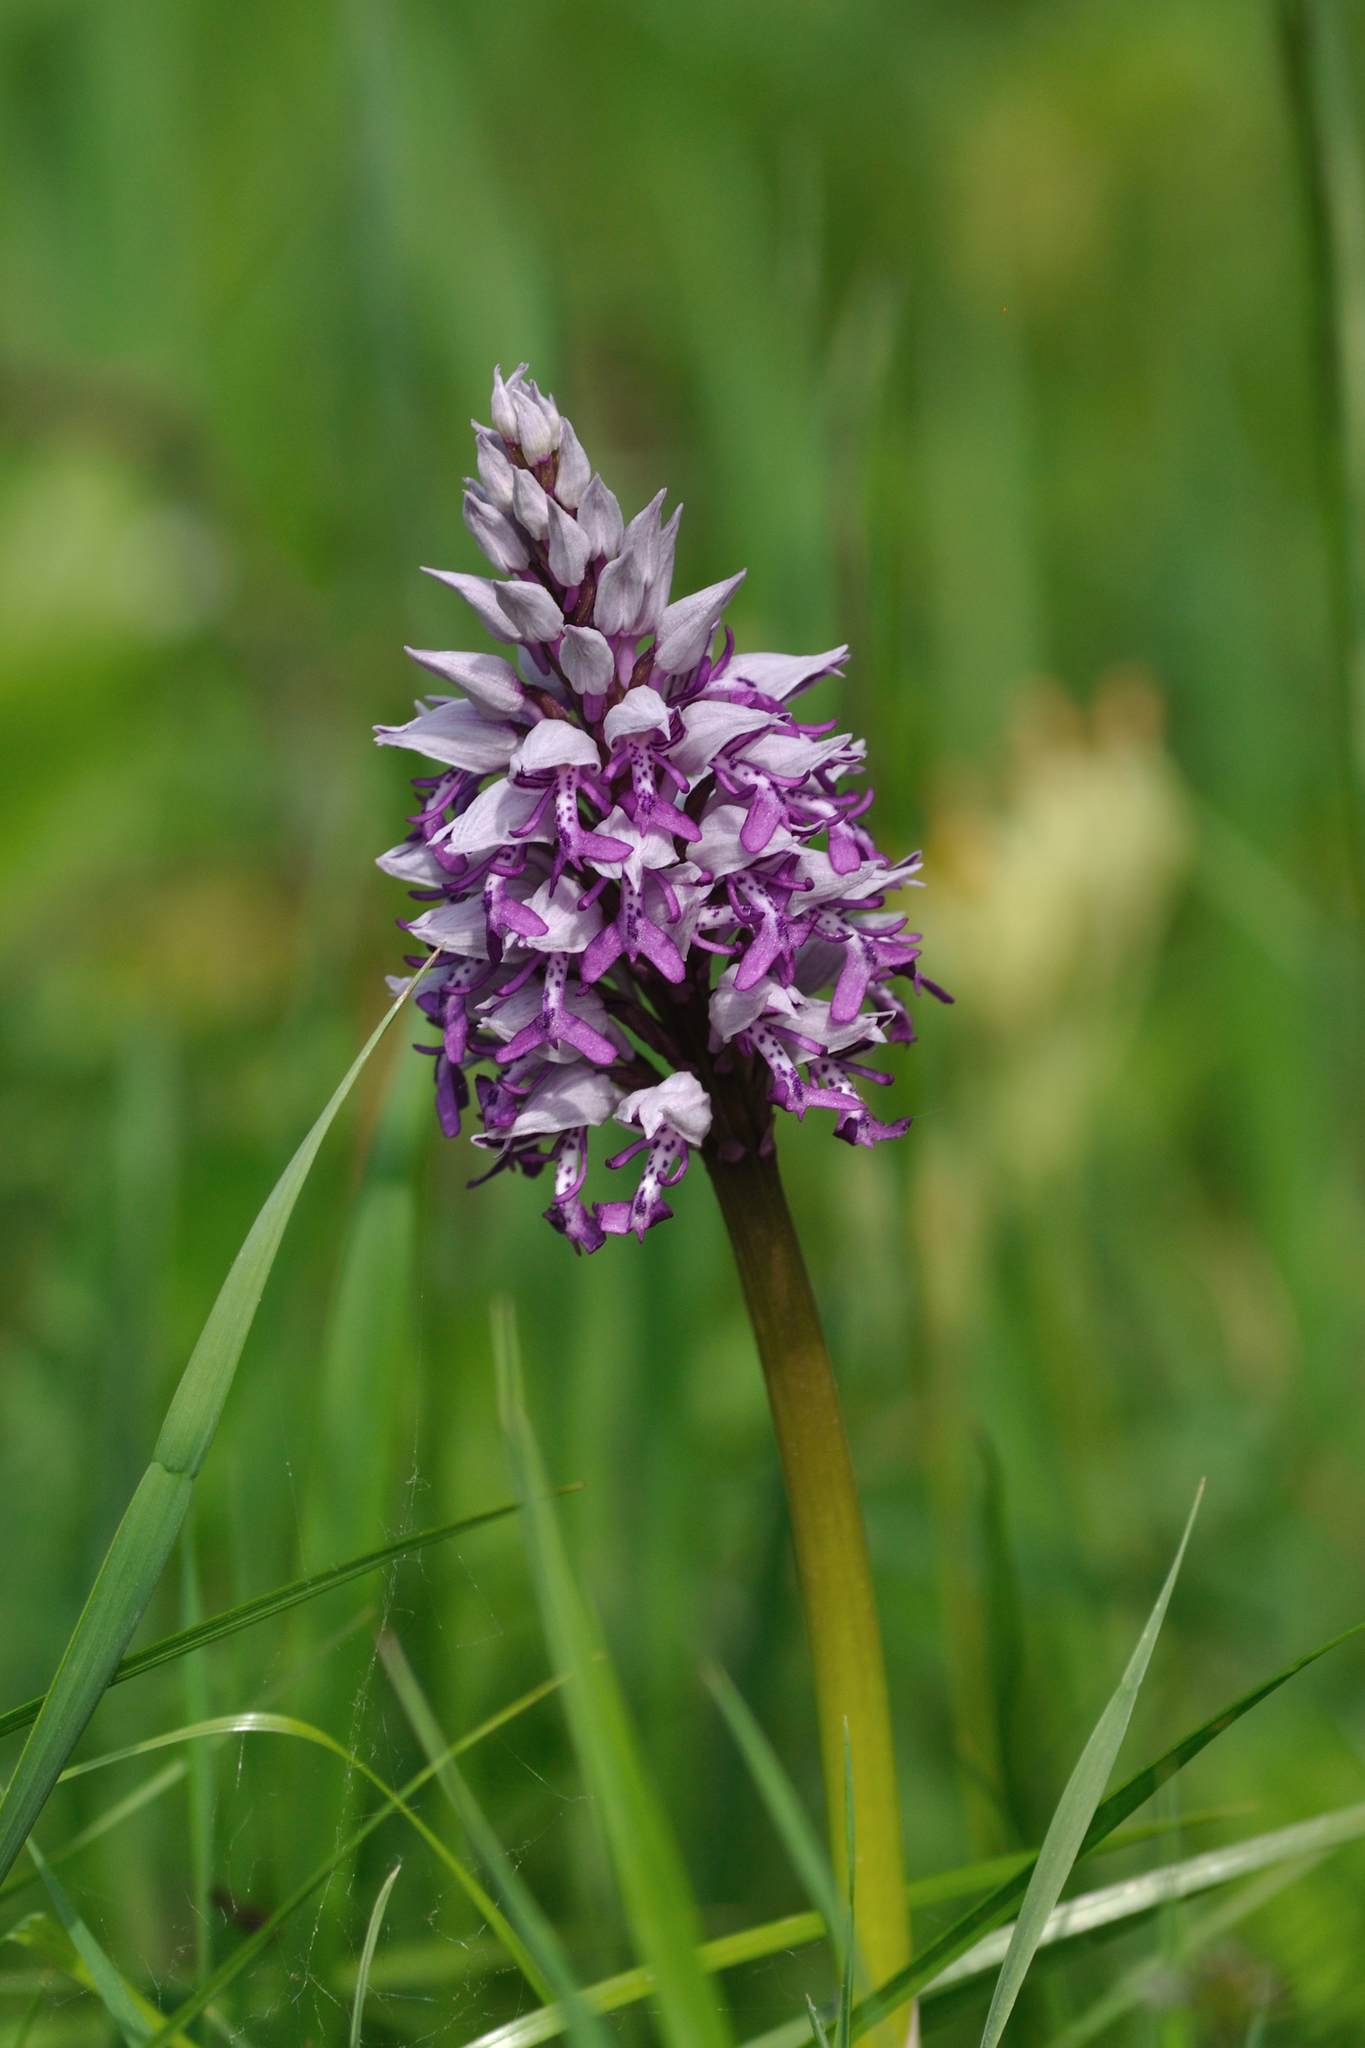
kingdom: Plantae
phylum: Tracheophyta
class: Liliopsida
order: Asparagales
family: Orchidaceae
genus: Orchis
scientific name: Orchis militaris
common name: Military orchid
